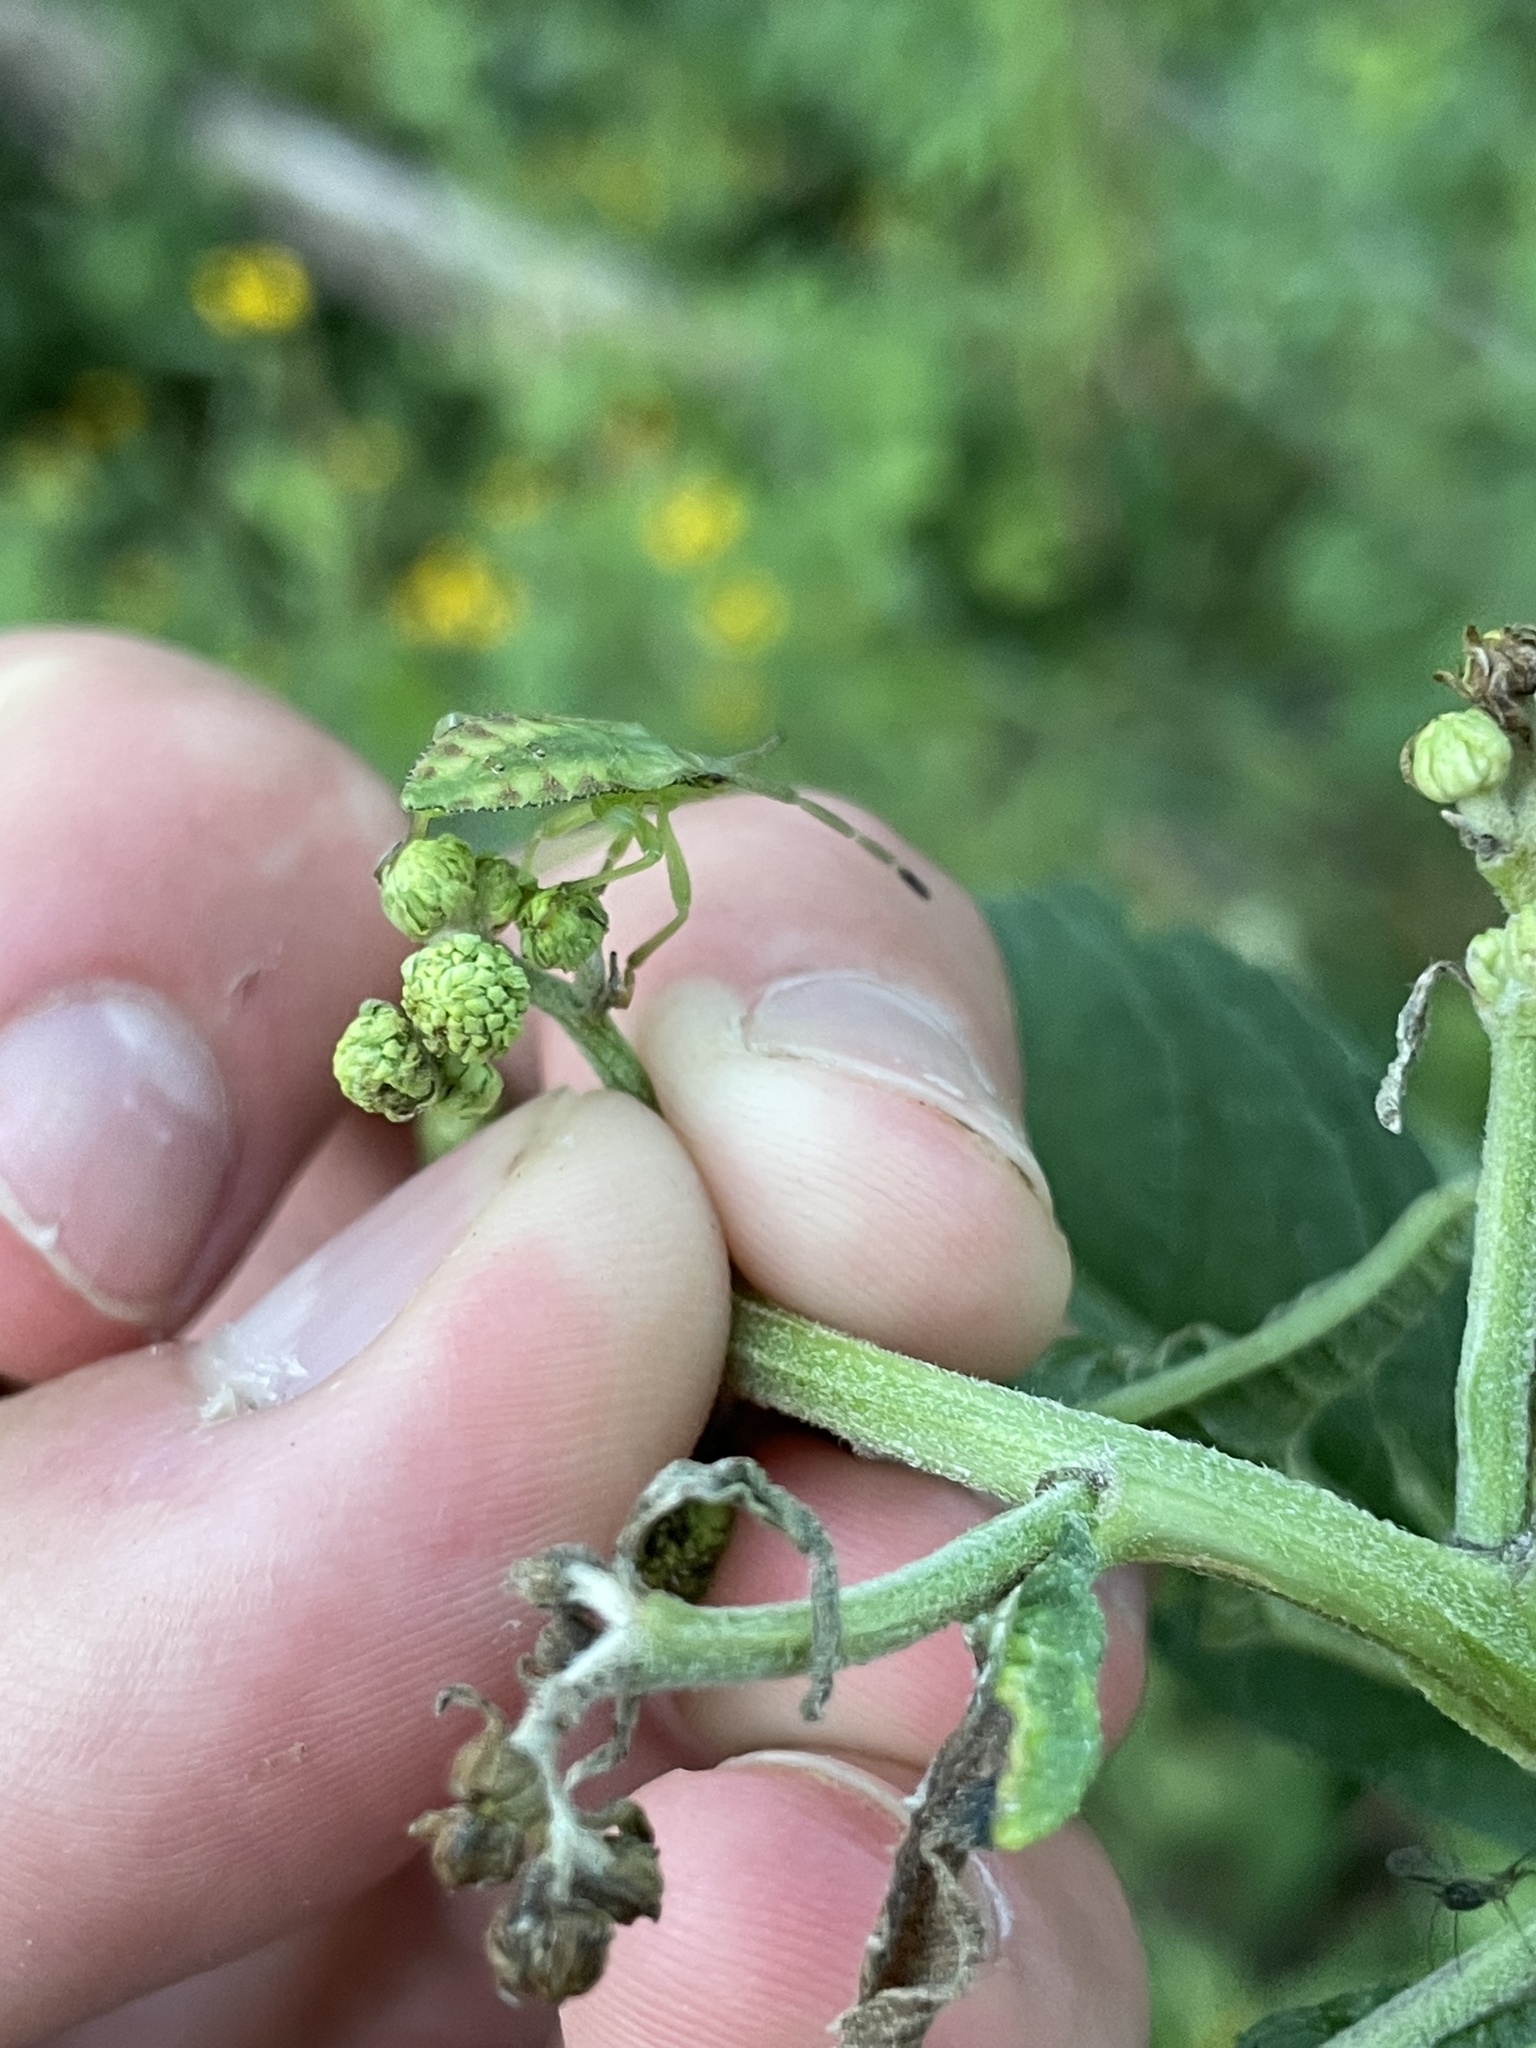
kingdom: Animalia
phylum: Arthropoda
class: Insecta
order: Hemiptera
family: Coreidae
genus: Piezogaster
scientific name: Piezogaster calcarator
